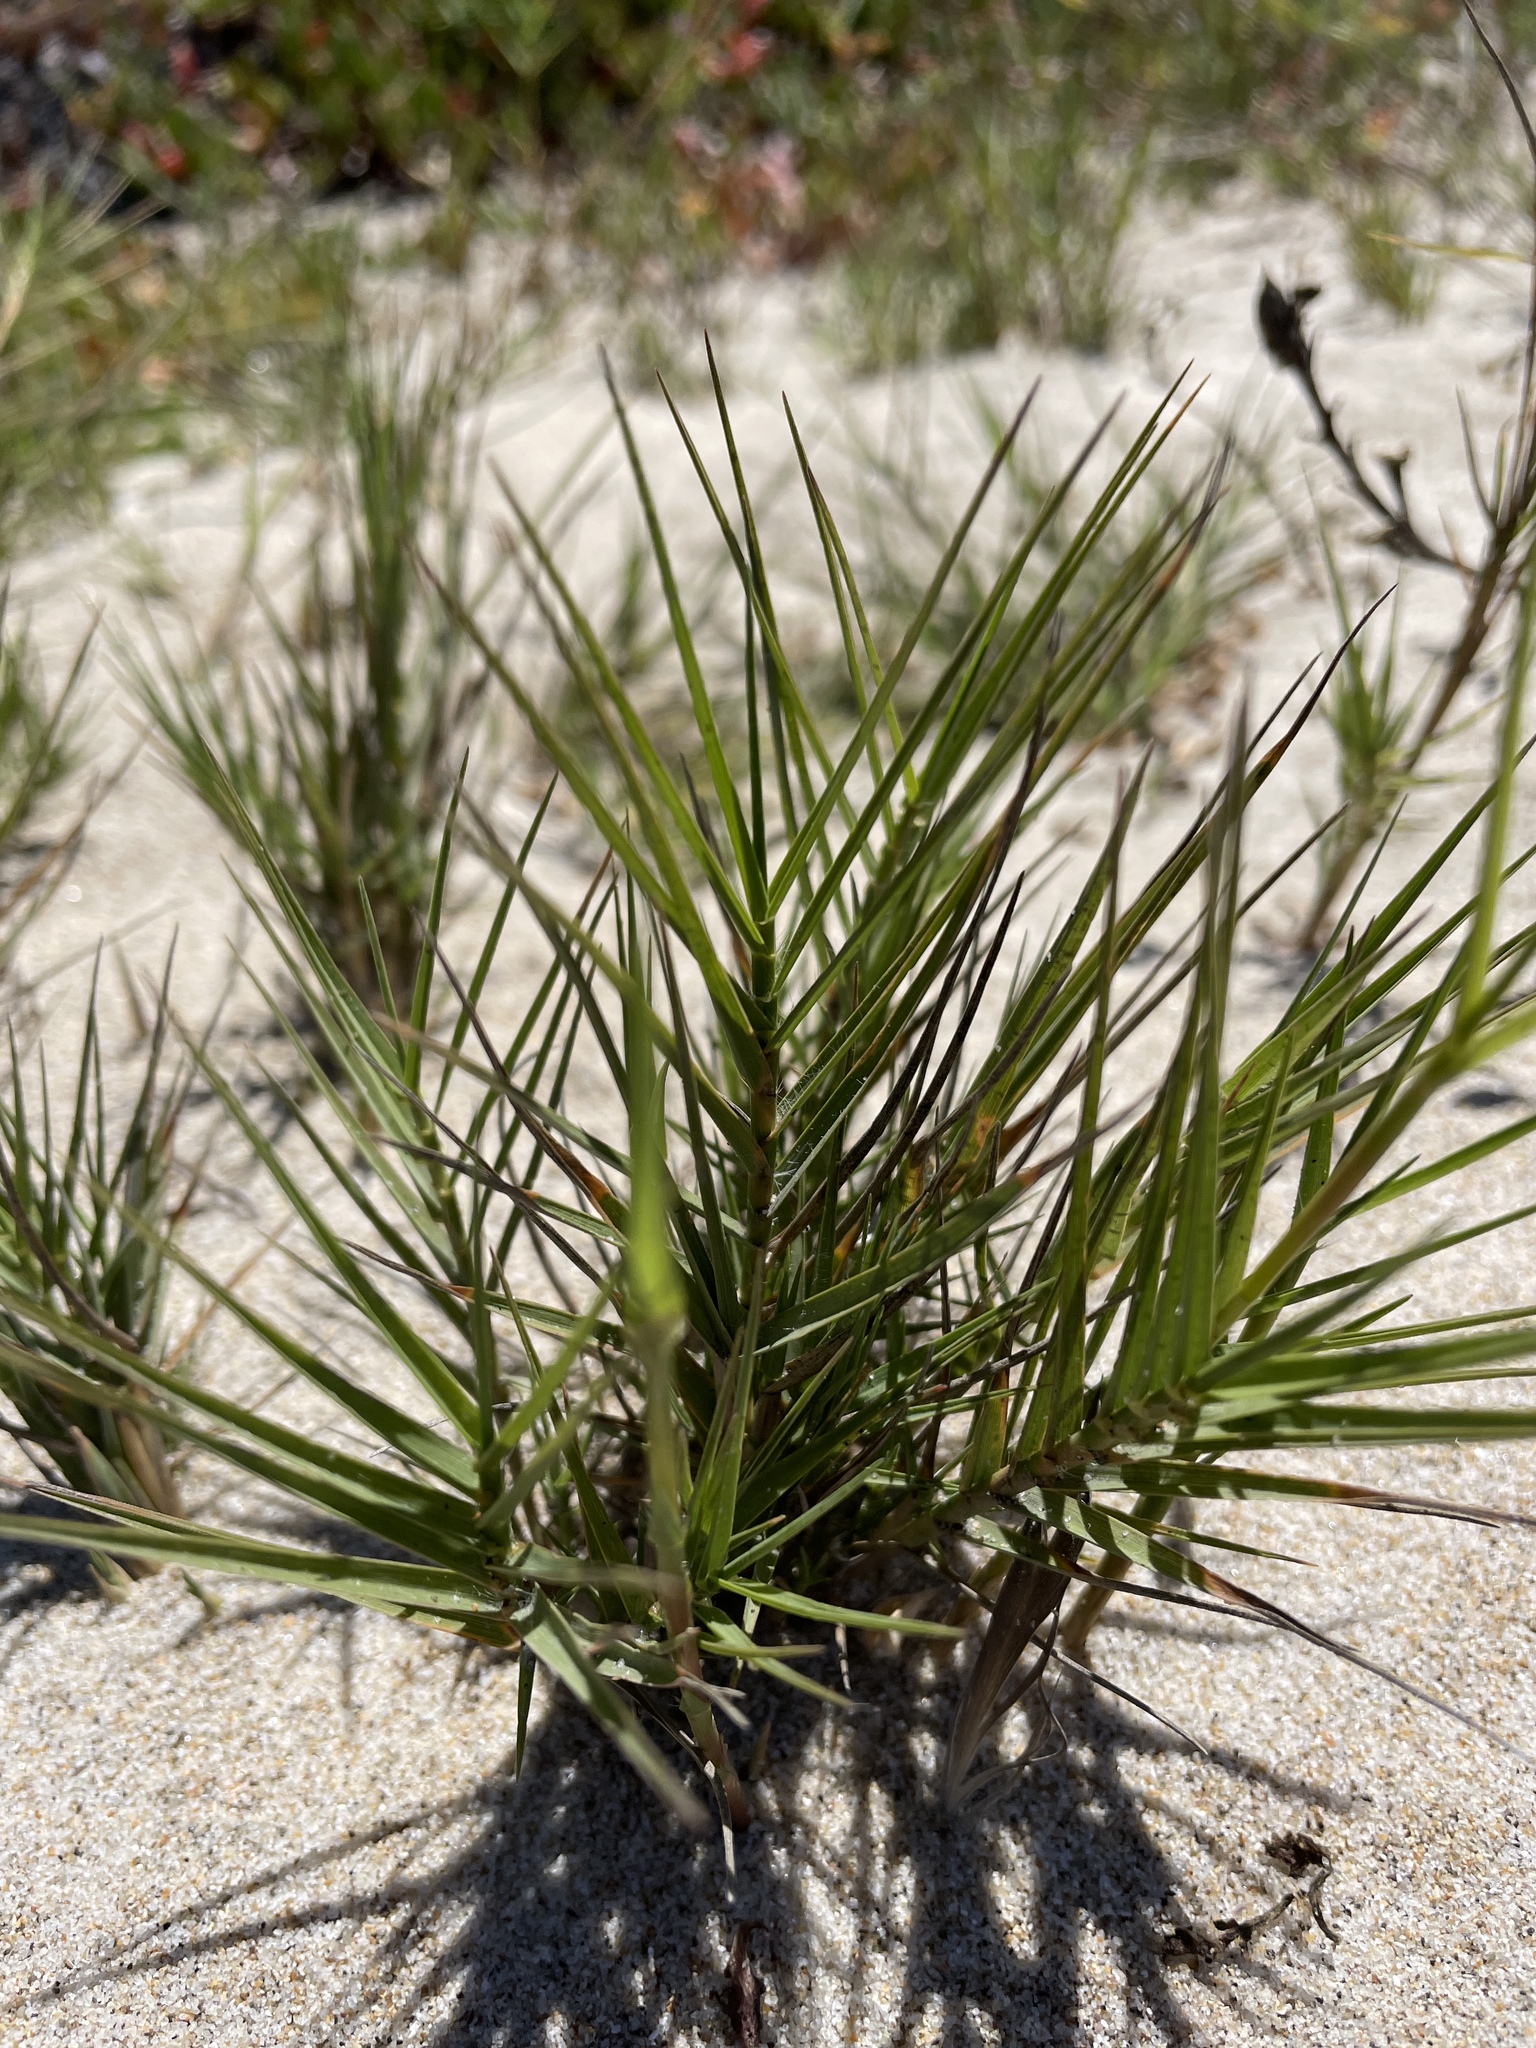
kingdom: Plantae
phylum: Tracheophyta
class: Liliopsida
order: Poales
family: Poaceae
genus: Distichlis
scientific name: Distichlis spicata
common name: Saltgrass
